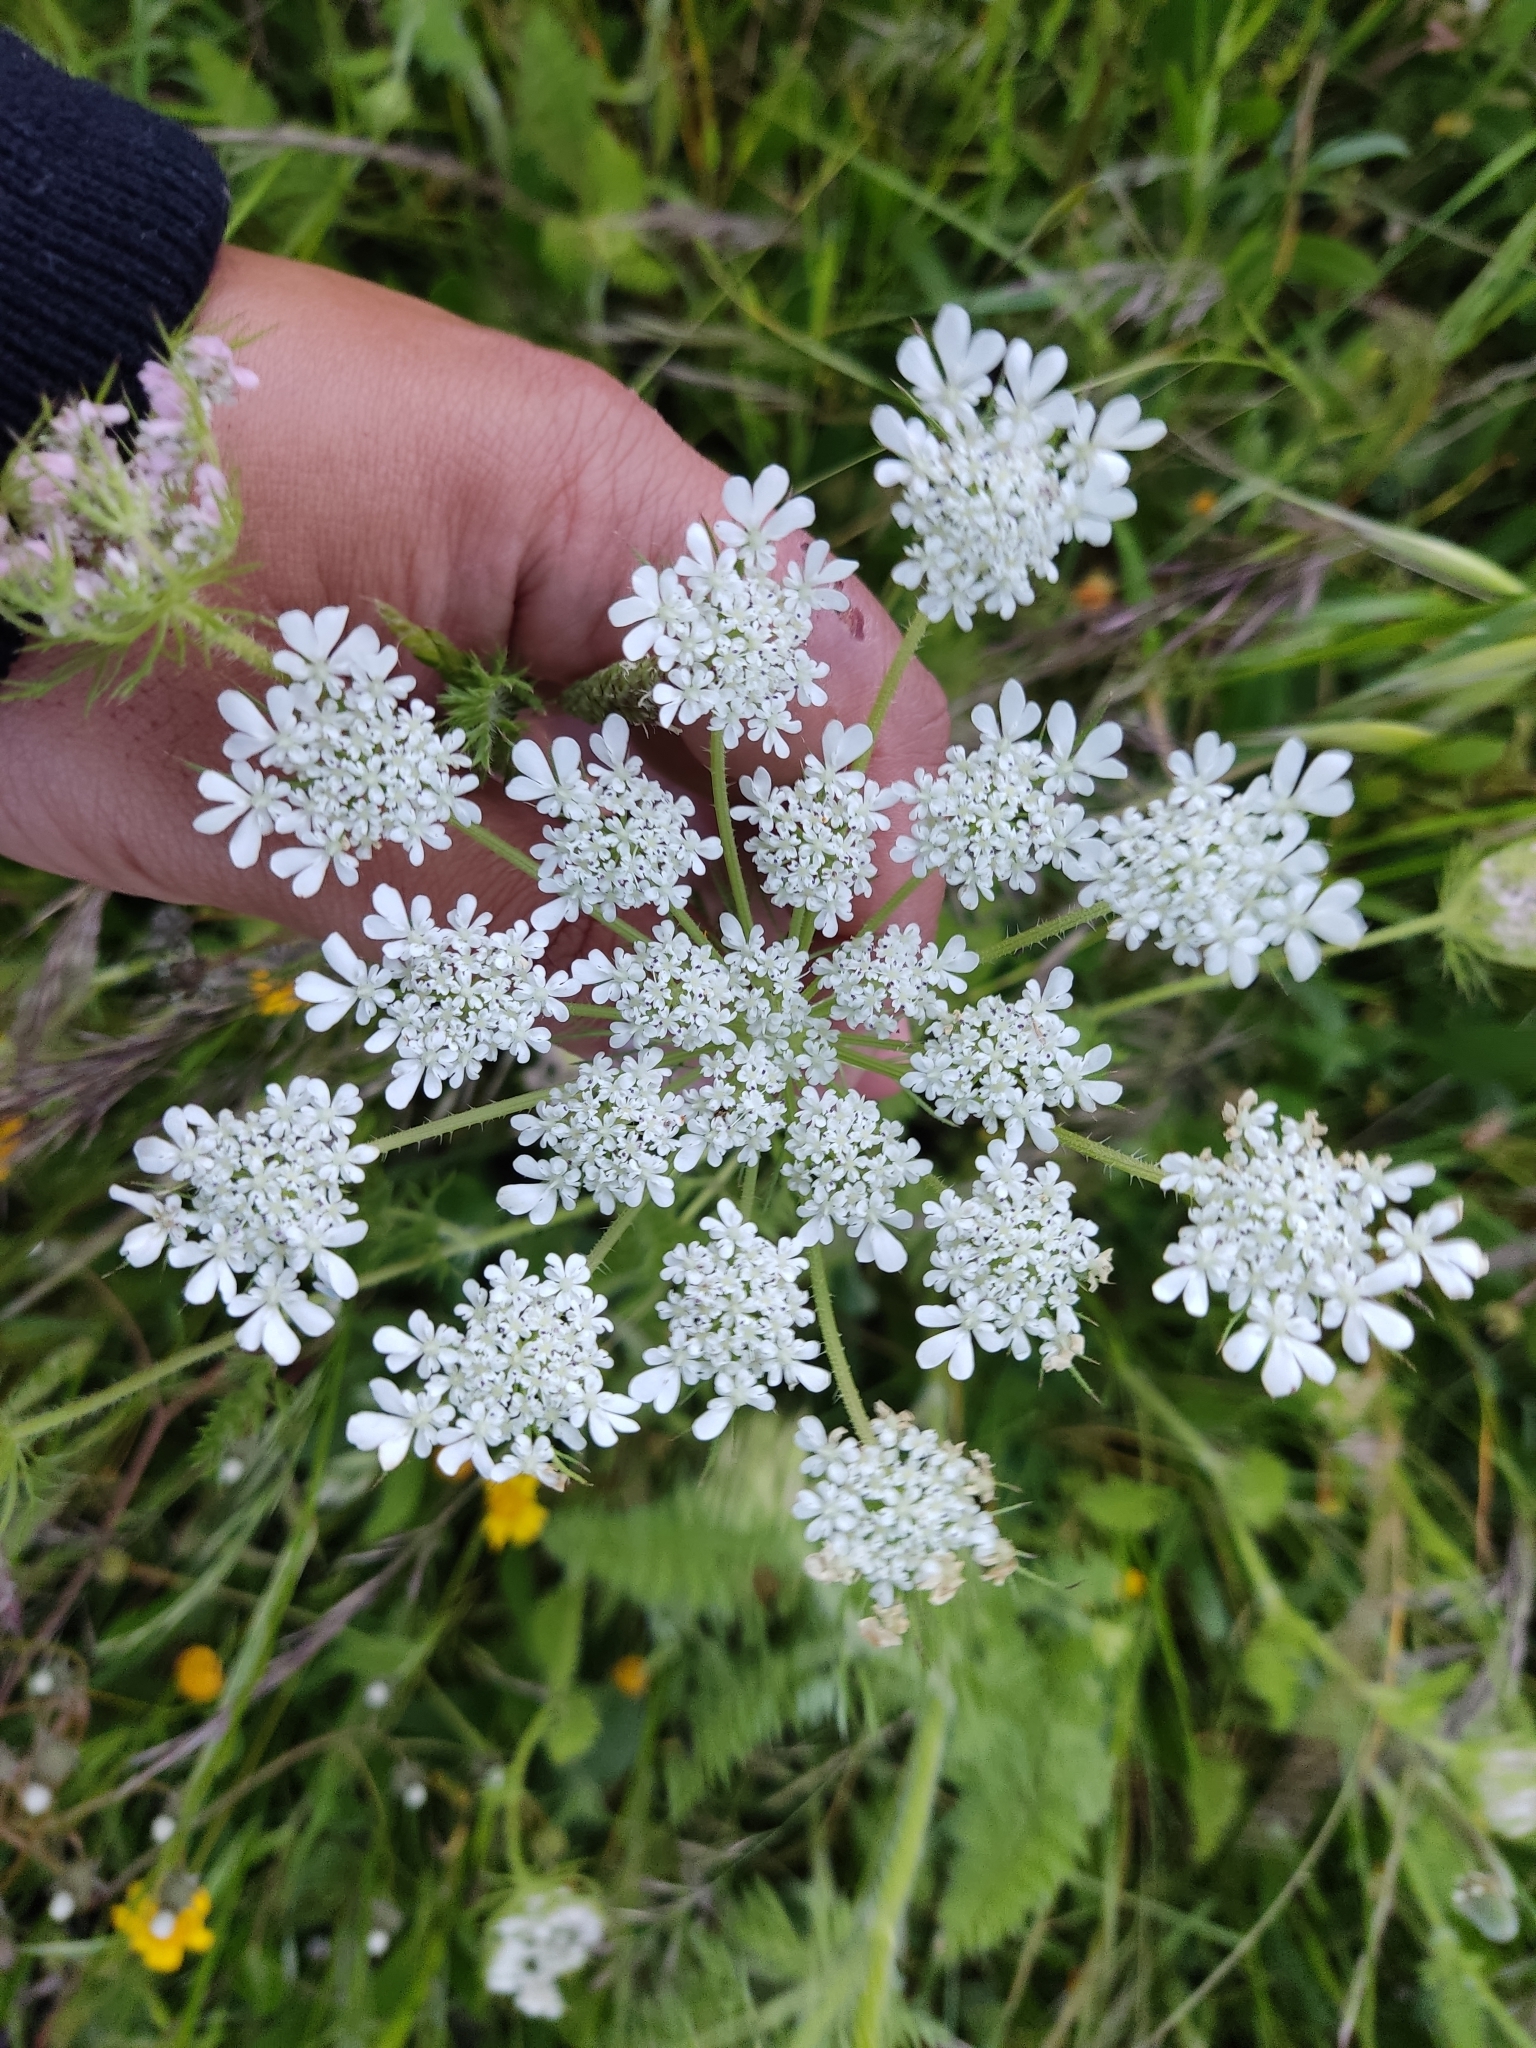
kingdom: Plantae
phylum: Tracheophyta
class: Magnoliopsida
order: Apiales
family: Apiaceae
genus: Daucus
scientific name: Daucus muricatus
